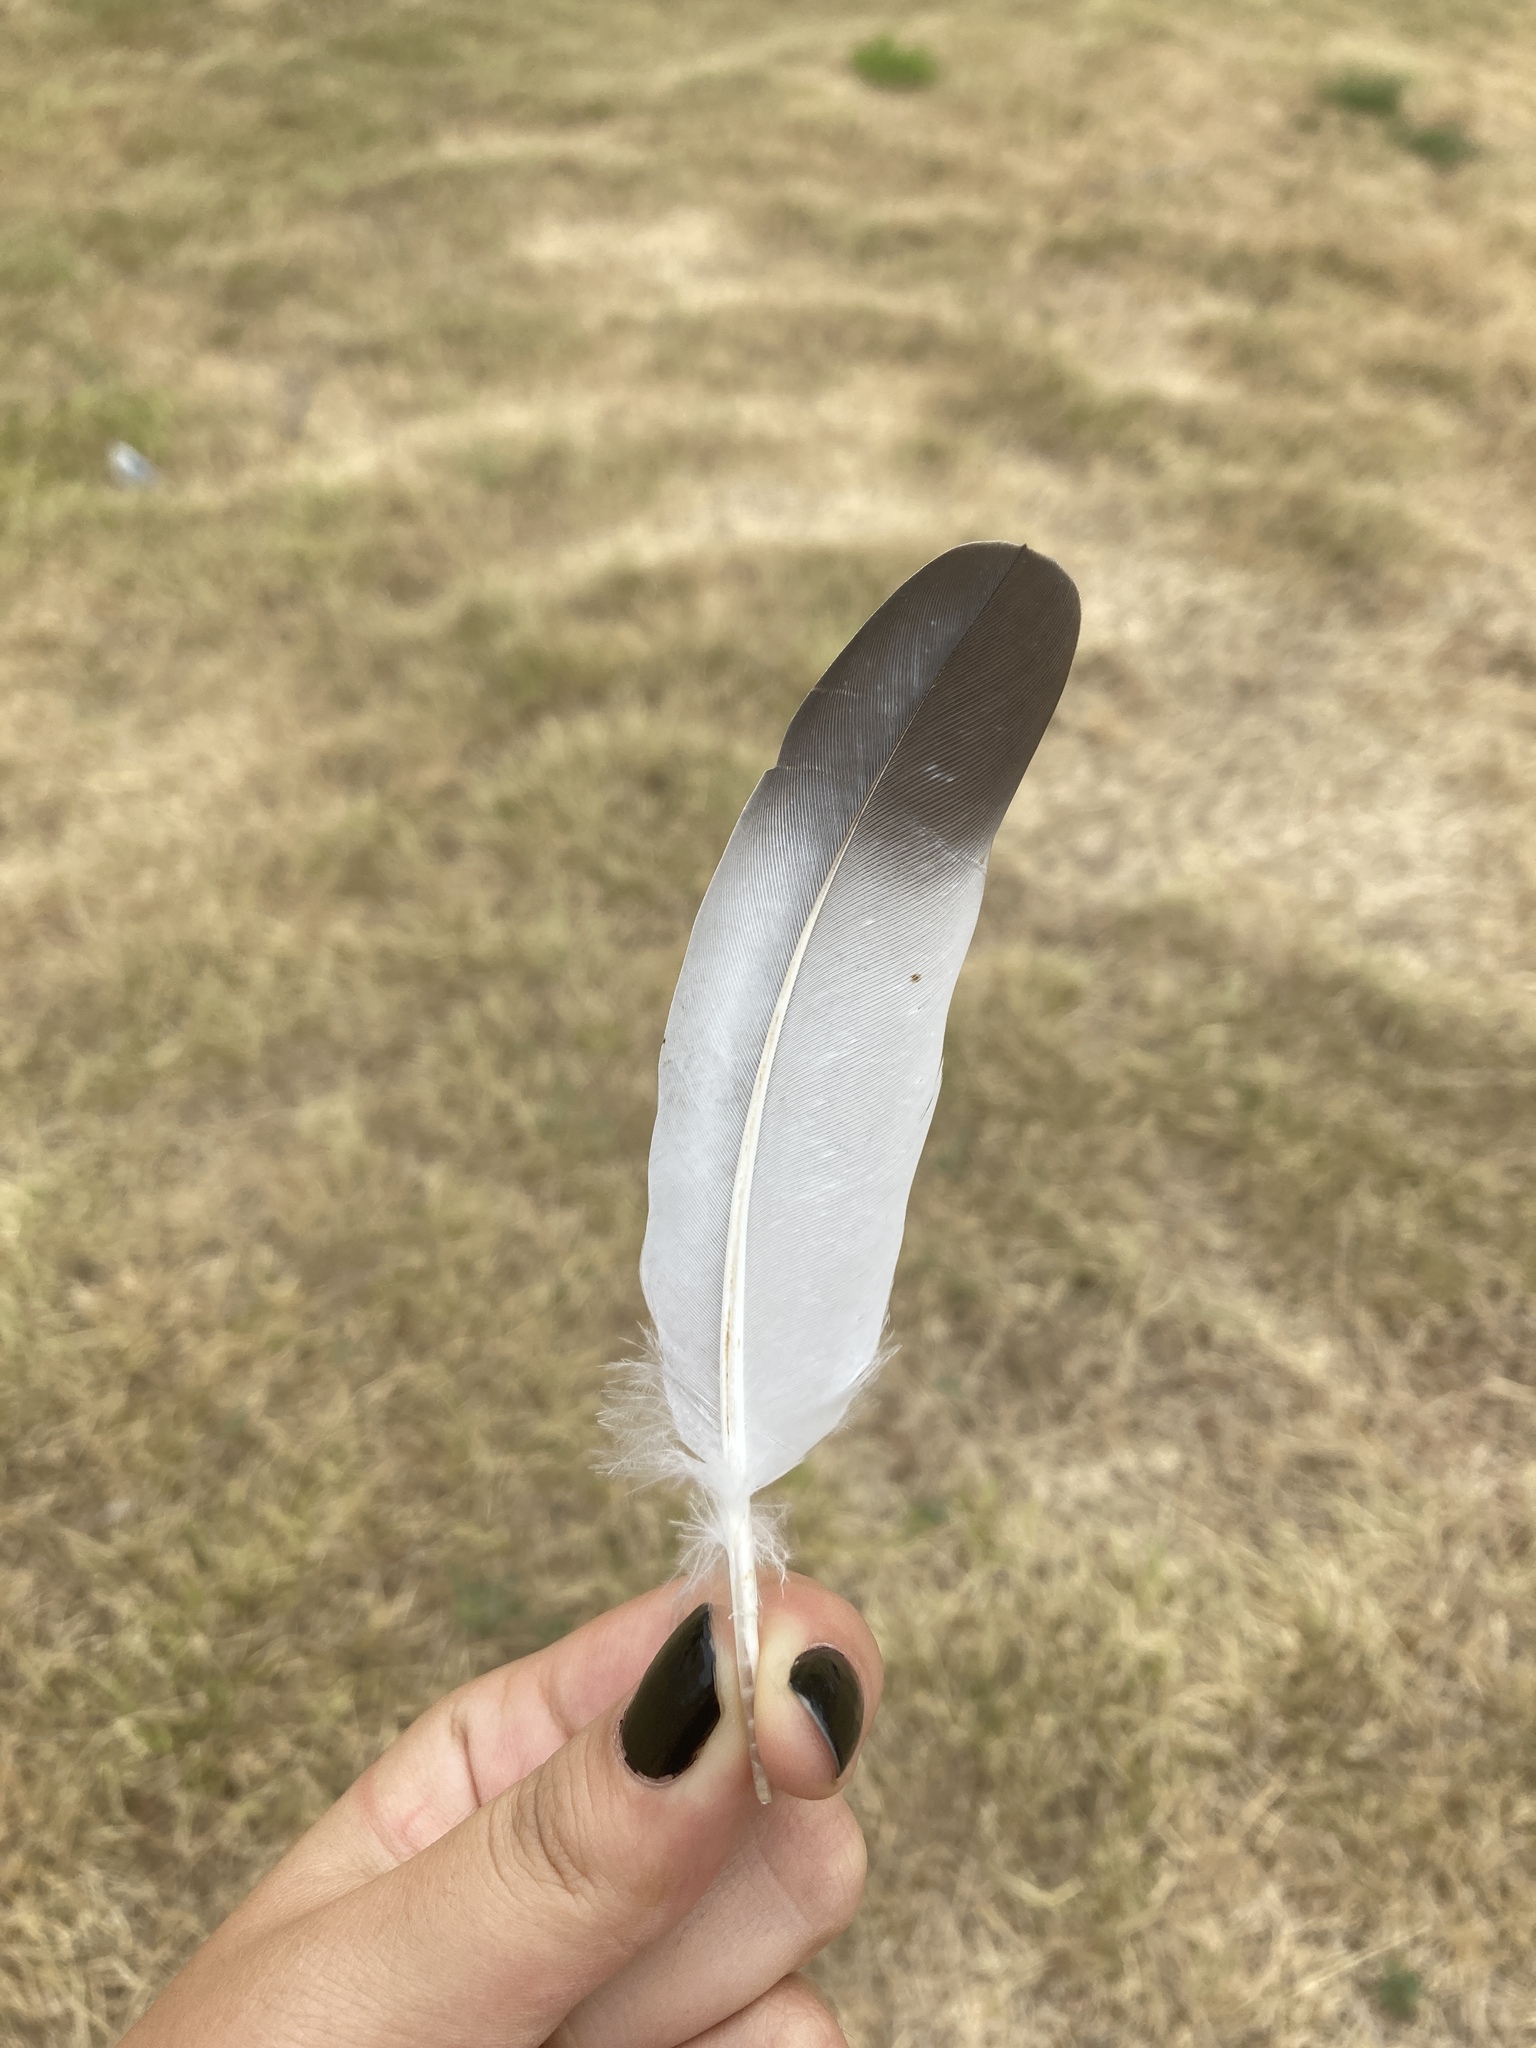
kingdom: Animalia
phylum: Chordata
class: Aves
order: Columbiformes
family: Columbidae
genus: Columba
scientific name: Columba livia
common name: Rock pigeon
